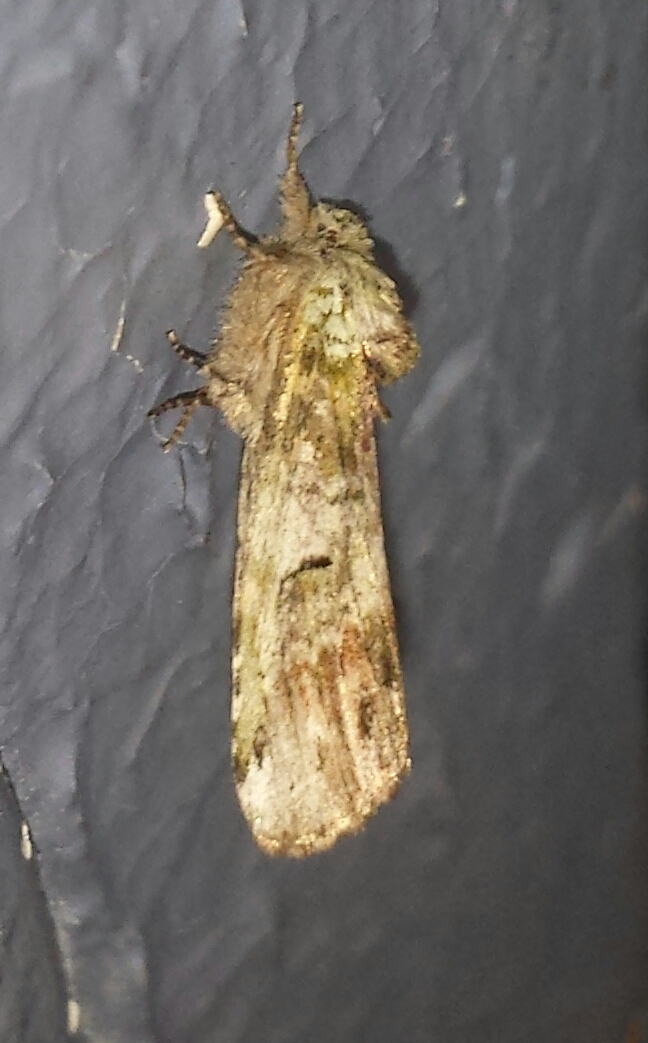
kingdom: Animalia
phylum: Arthropoda
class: Insecta
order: Lepidoptera
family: Notodontidae
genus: Schizura
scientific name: Schizura
